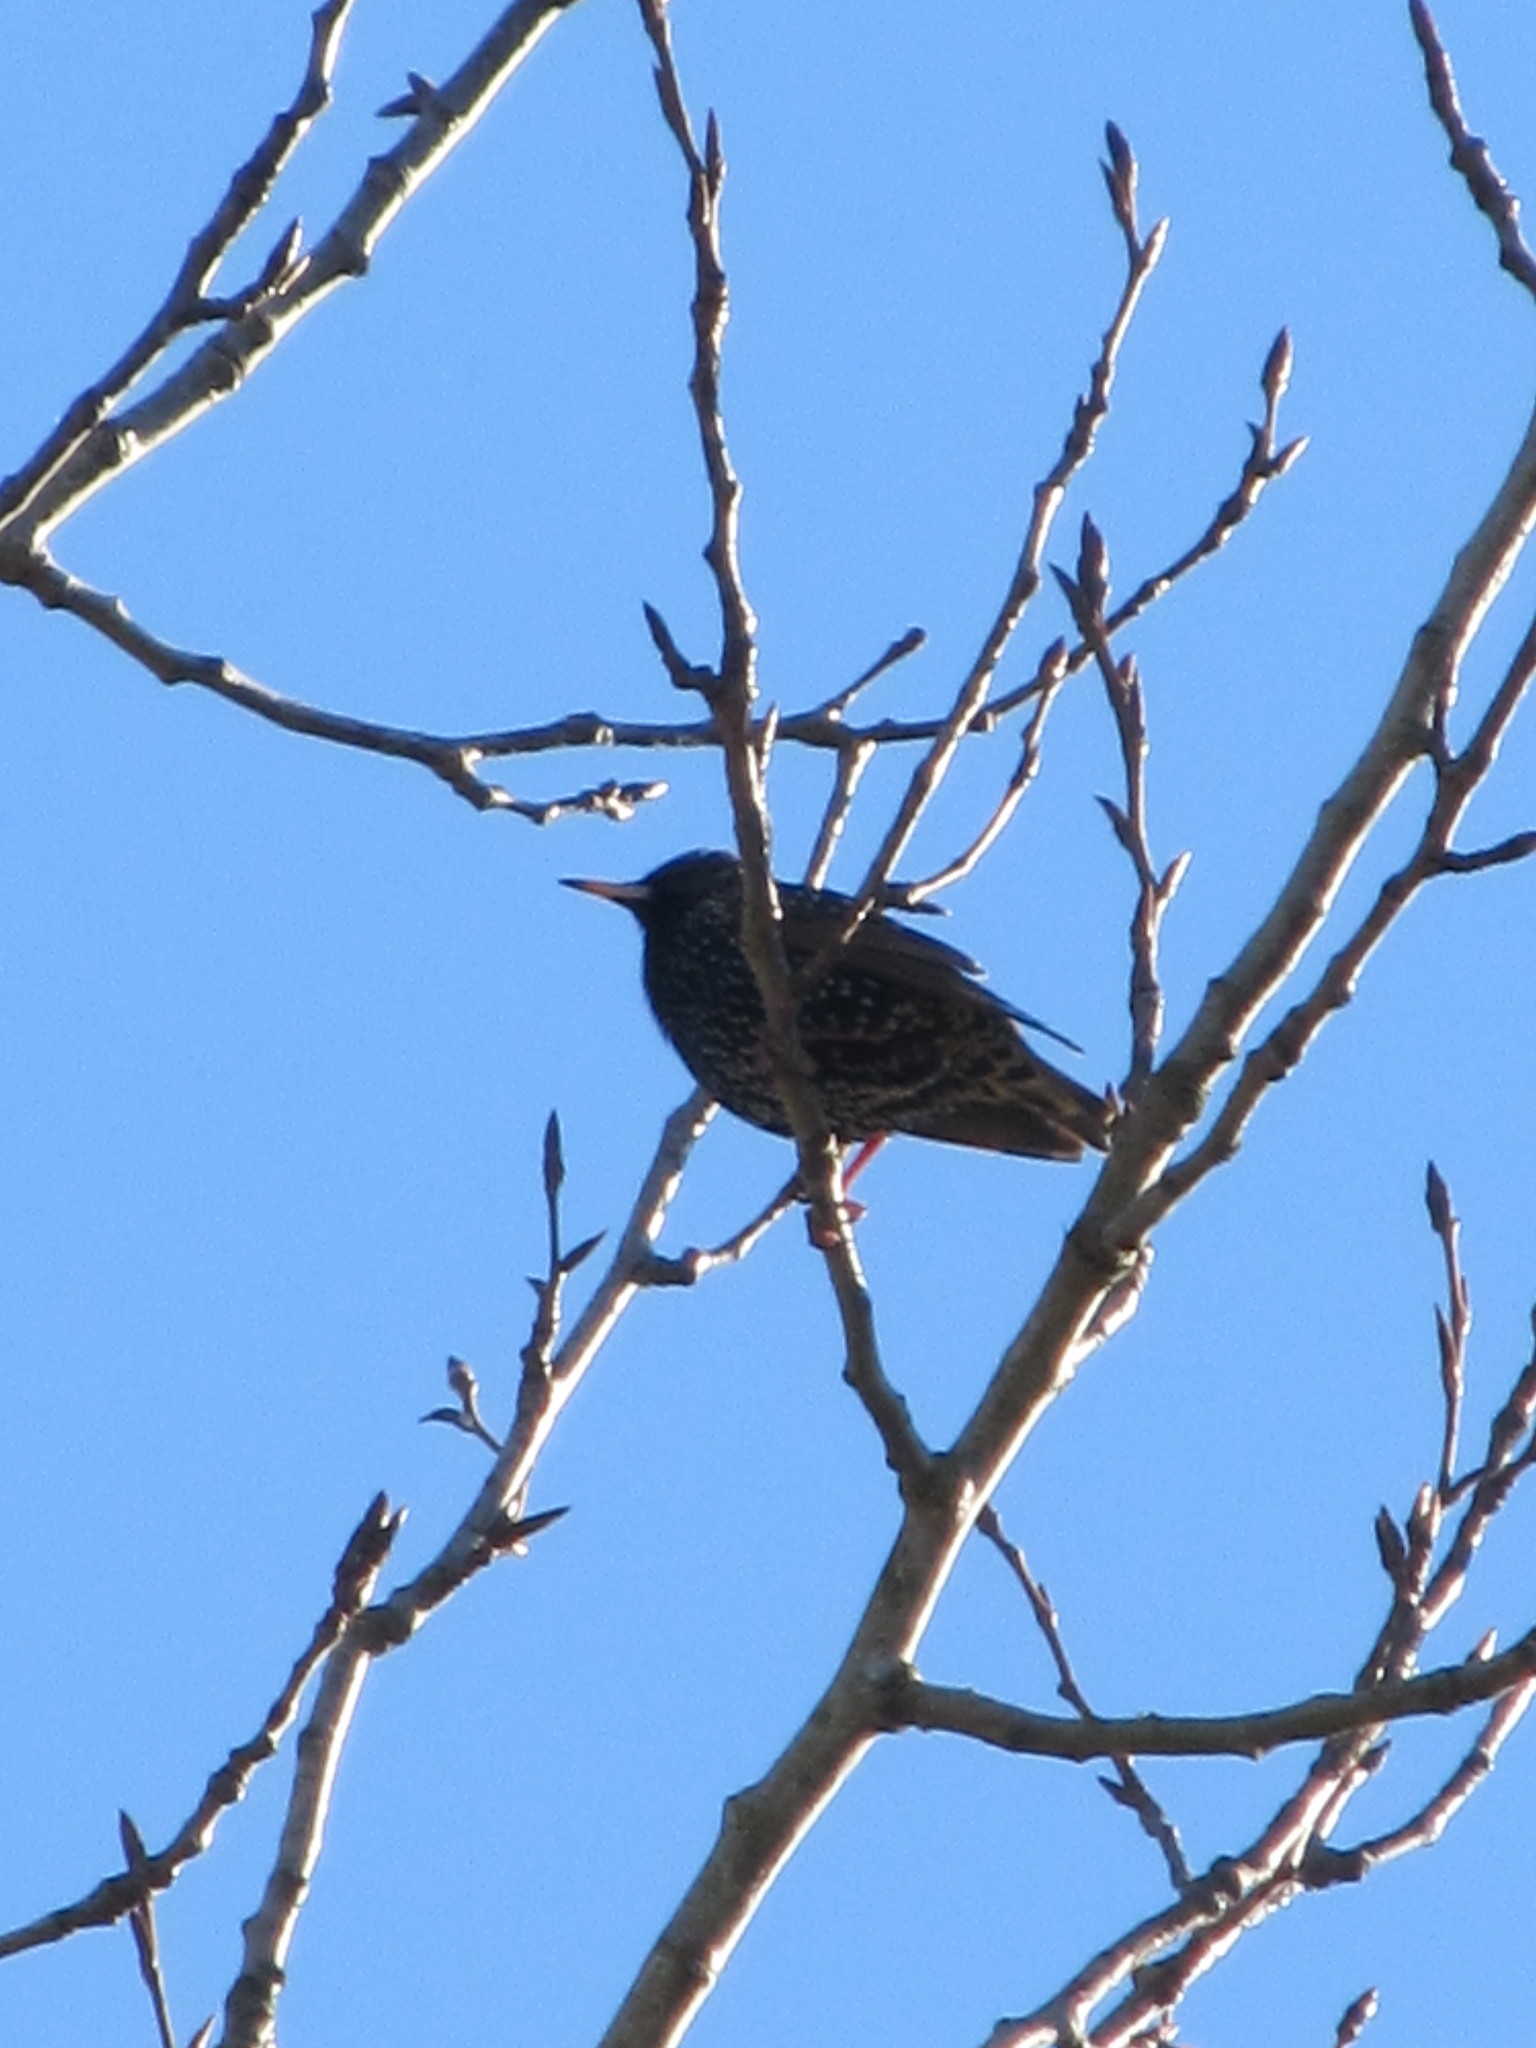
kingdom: Animalia
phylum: Chordata
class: Aves
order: Passeriformes
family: Sturnidae
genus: Sturnus
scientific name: Sturnus vulgaris
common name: Common starling
